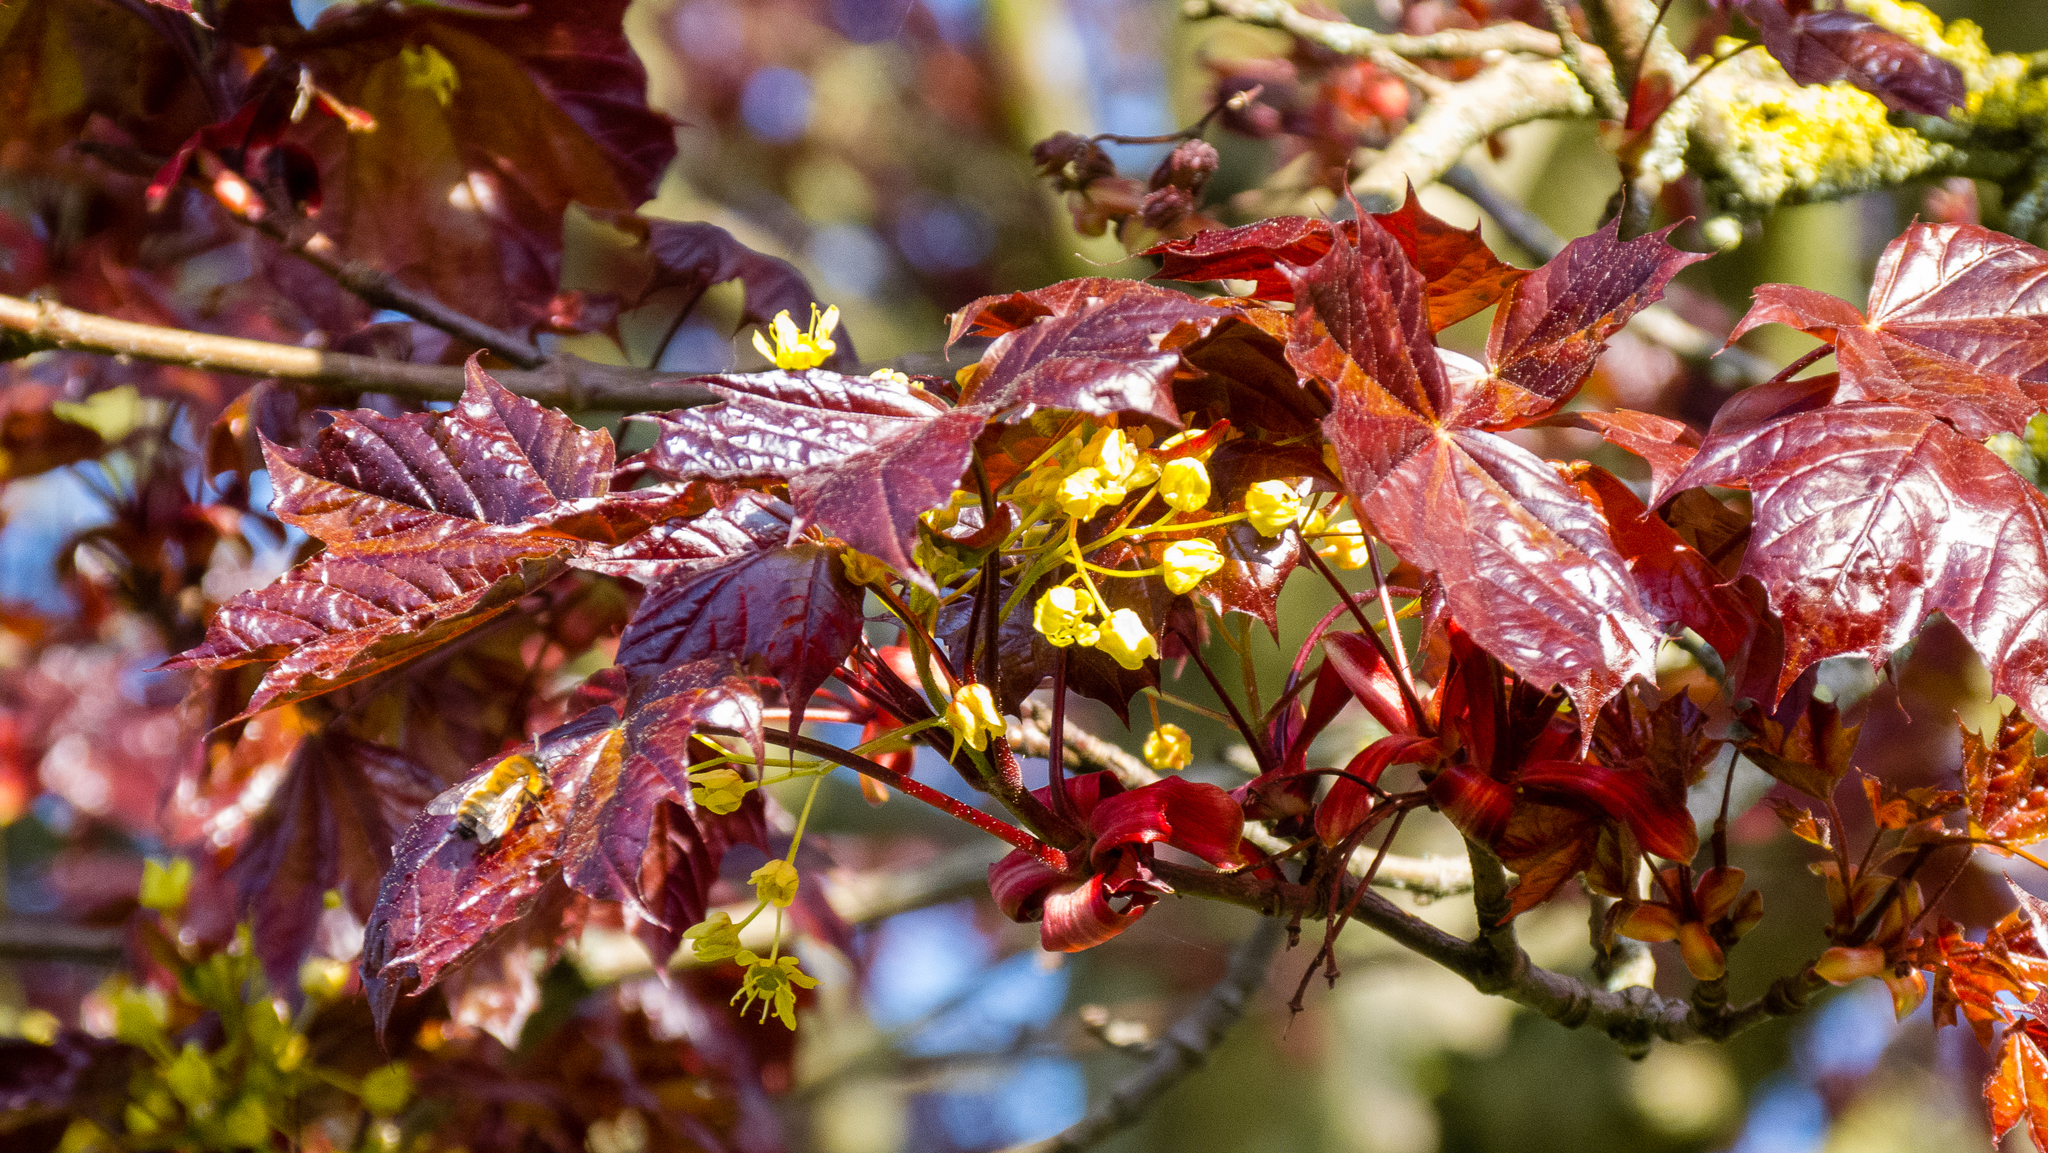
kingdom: Plantae
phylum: Tracheophyta
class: Magnoliopsida
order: Sapindales
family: Sapindaceae
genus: Acer
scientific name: Acer platanoides
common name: Norway maple
